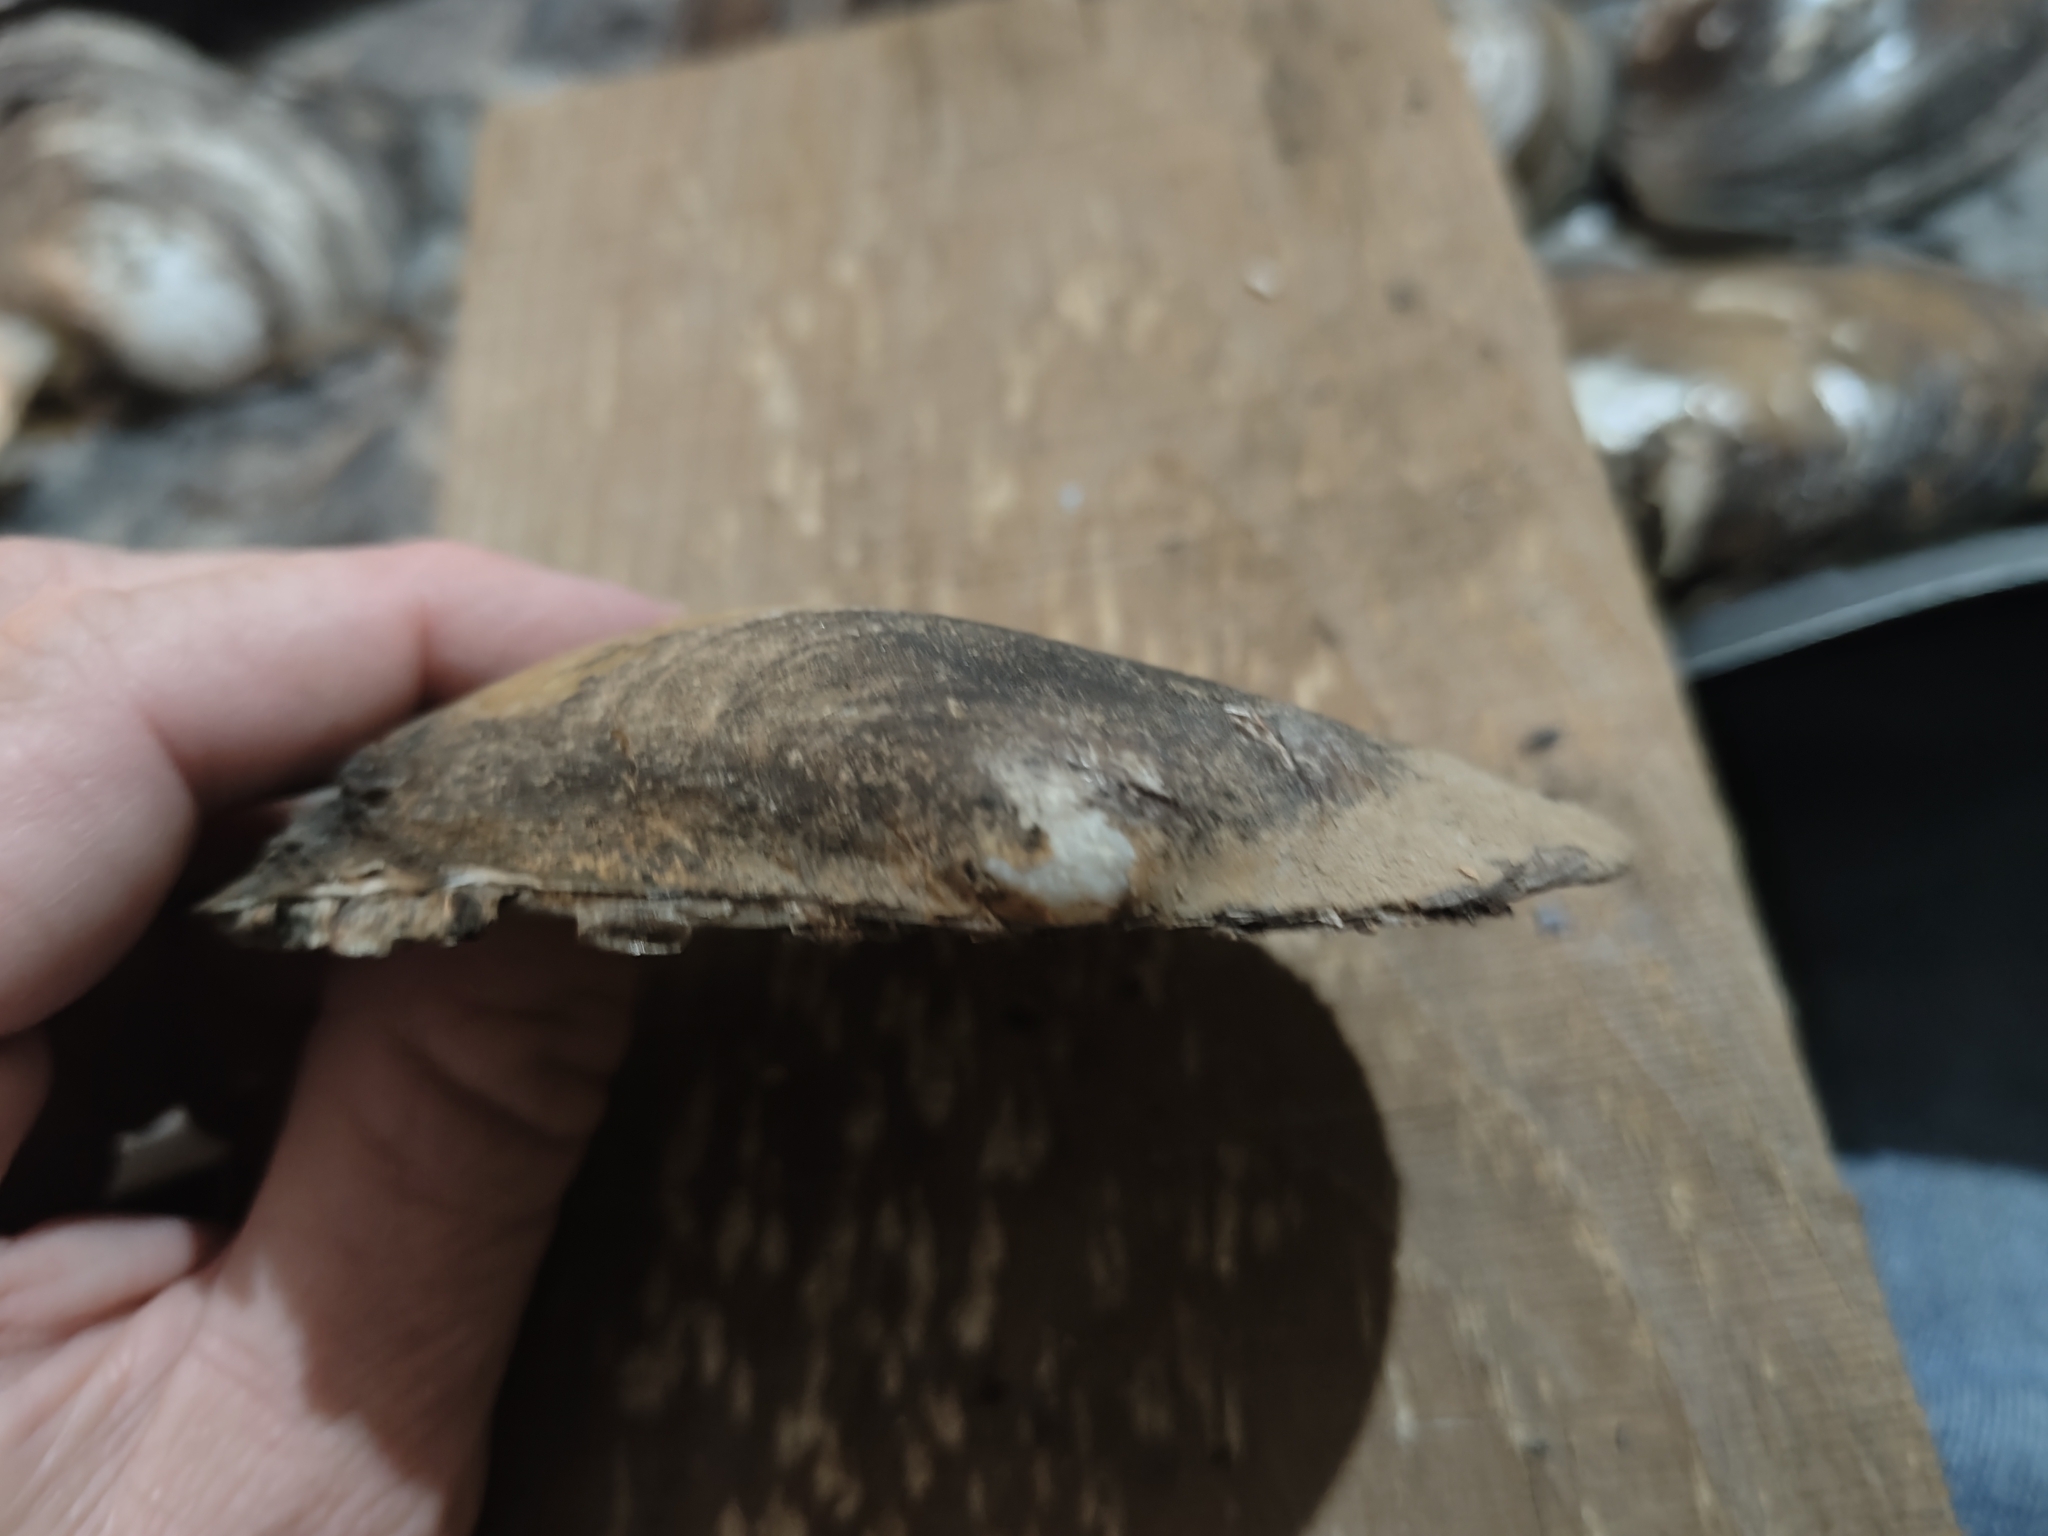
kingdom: Animalia
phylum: Mollusca
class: Bivalvia
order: Unionida
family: Unionidae
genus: Potamilus
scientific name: Potamilus fragilis
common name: Fragile papershell
